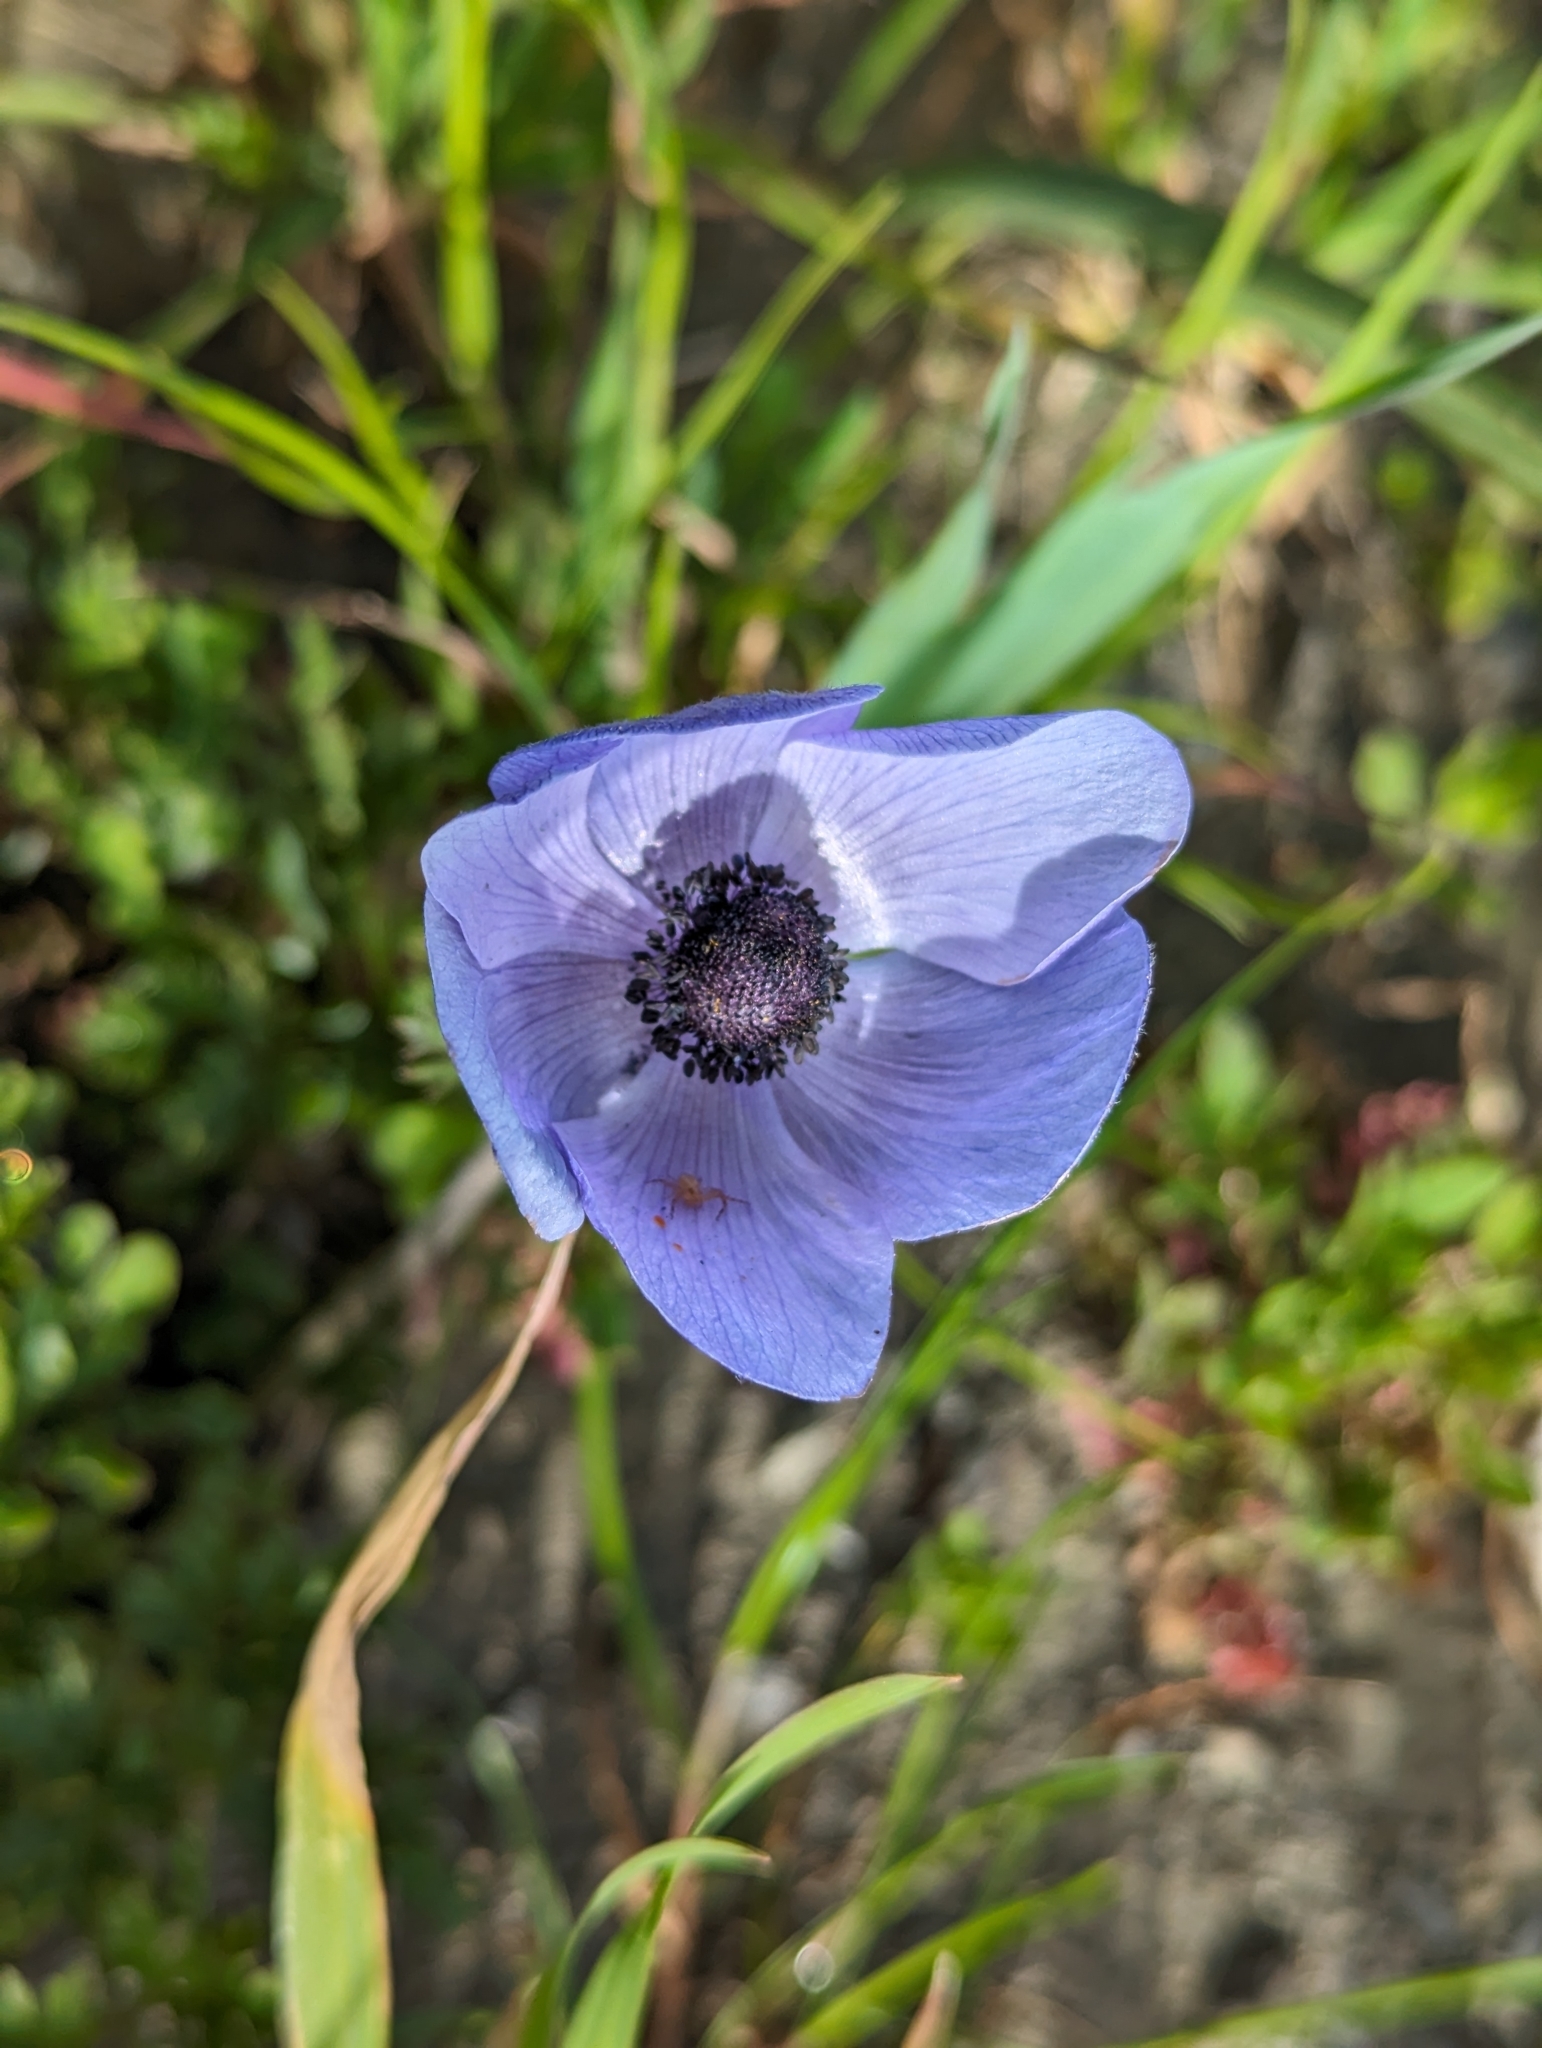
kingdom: Plantae
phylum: Tracheophyta
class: Magnoliopsida
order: Ranunculales
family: Ranunculaceae
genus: Anemone
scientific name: Anemone coronaria
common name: Poppy anemone
